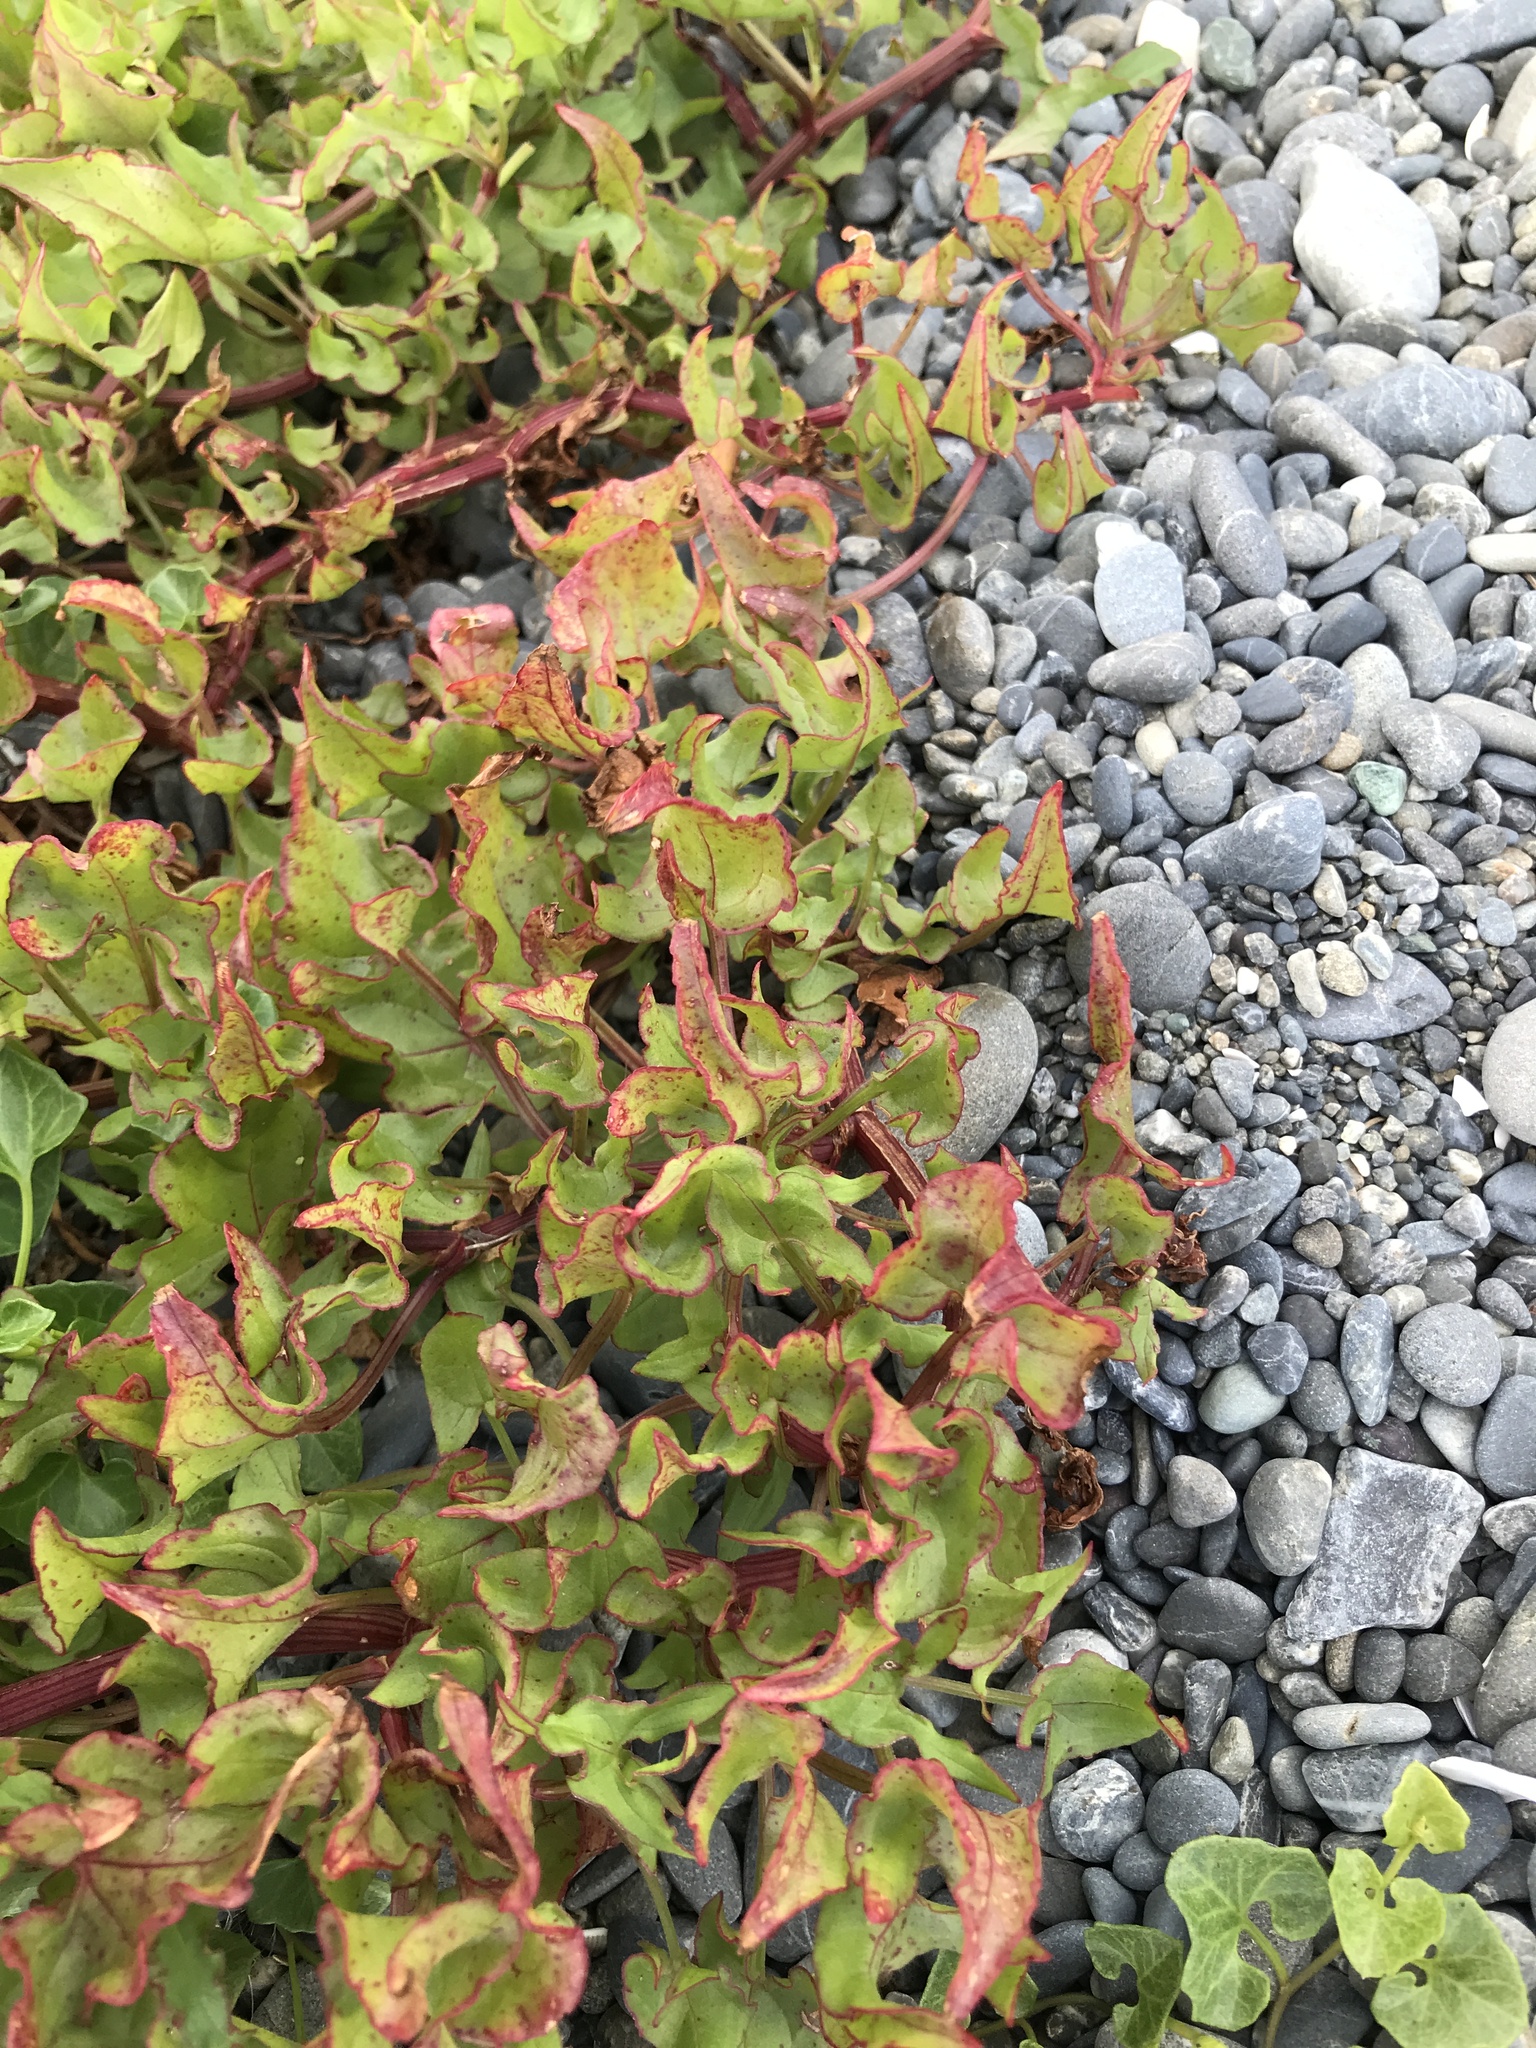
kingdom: Plantae
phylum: Tracheophyta
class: Magnoliopsida
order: Caryophyllales
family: Polygonaceae
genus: Rumex
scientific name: Rumex sagittatus
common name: Climbing dock
